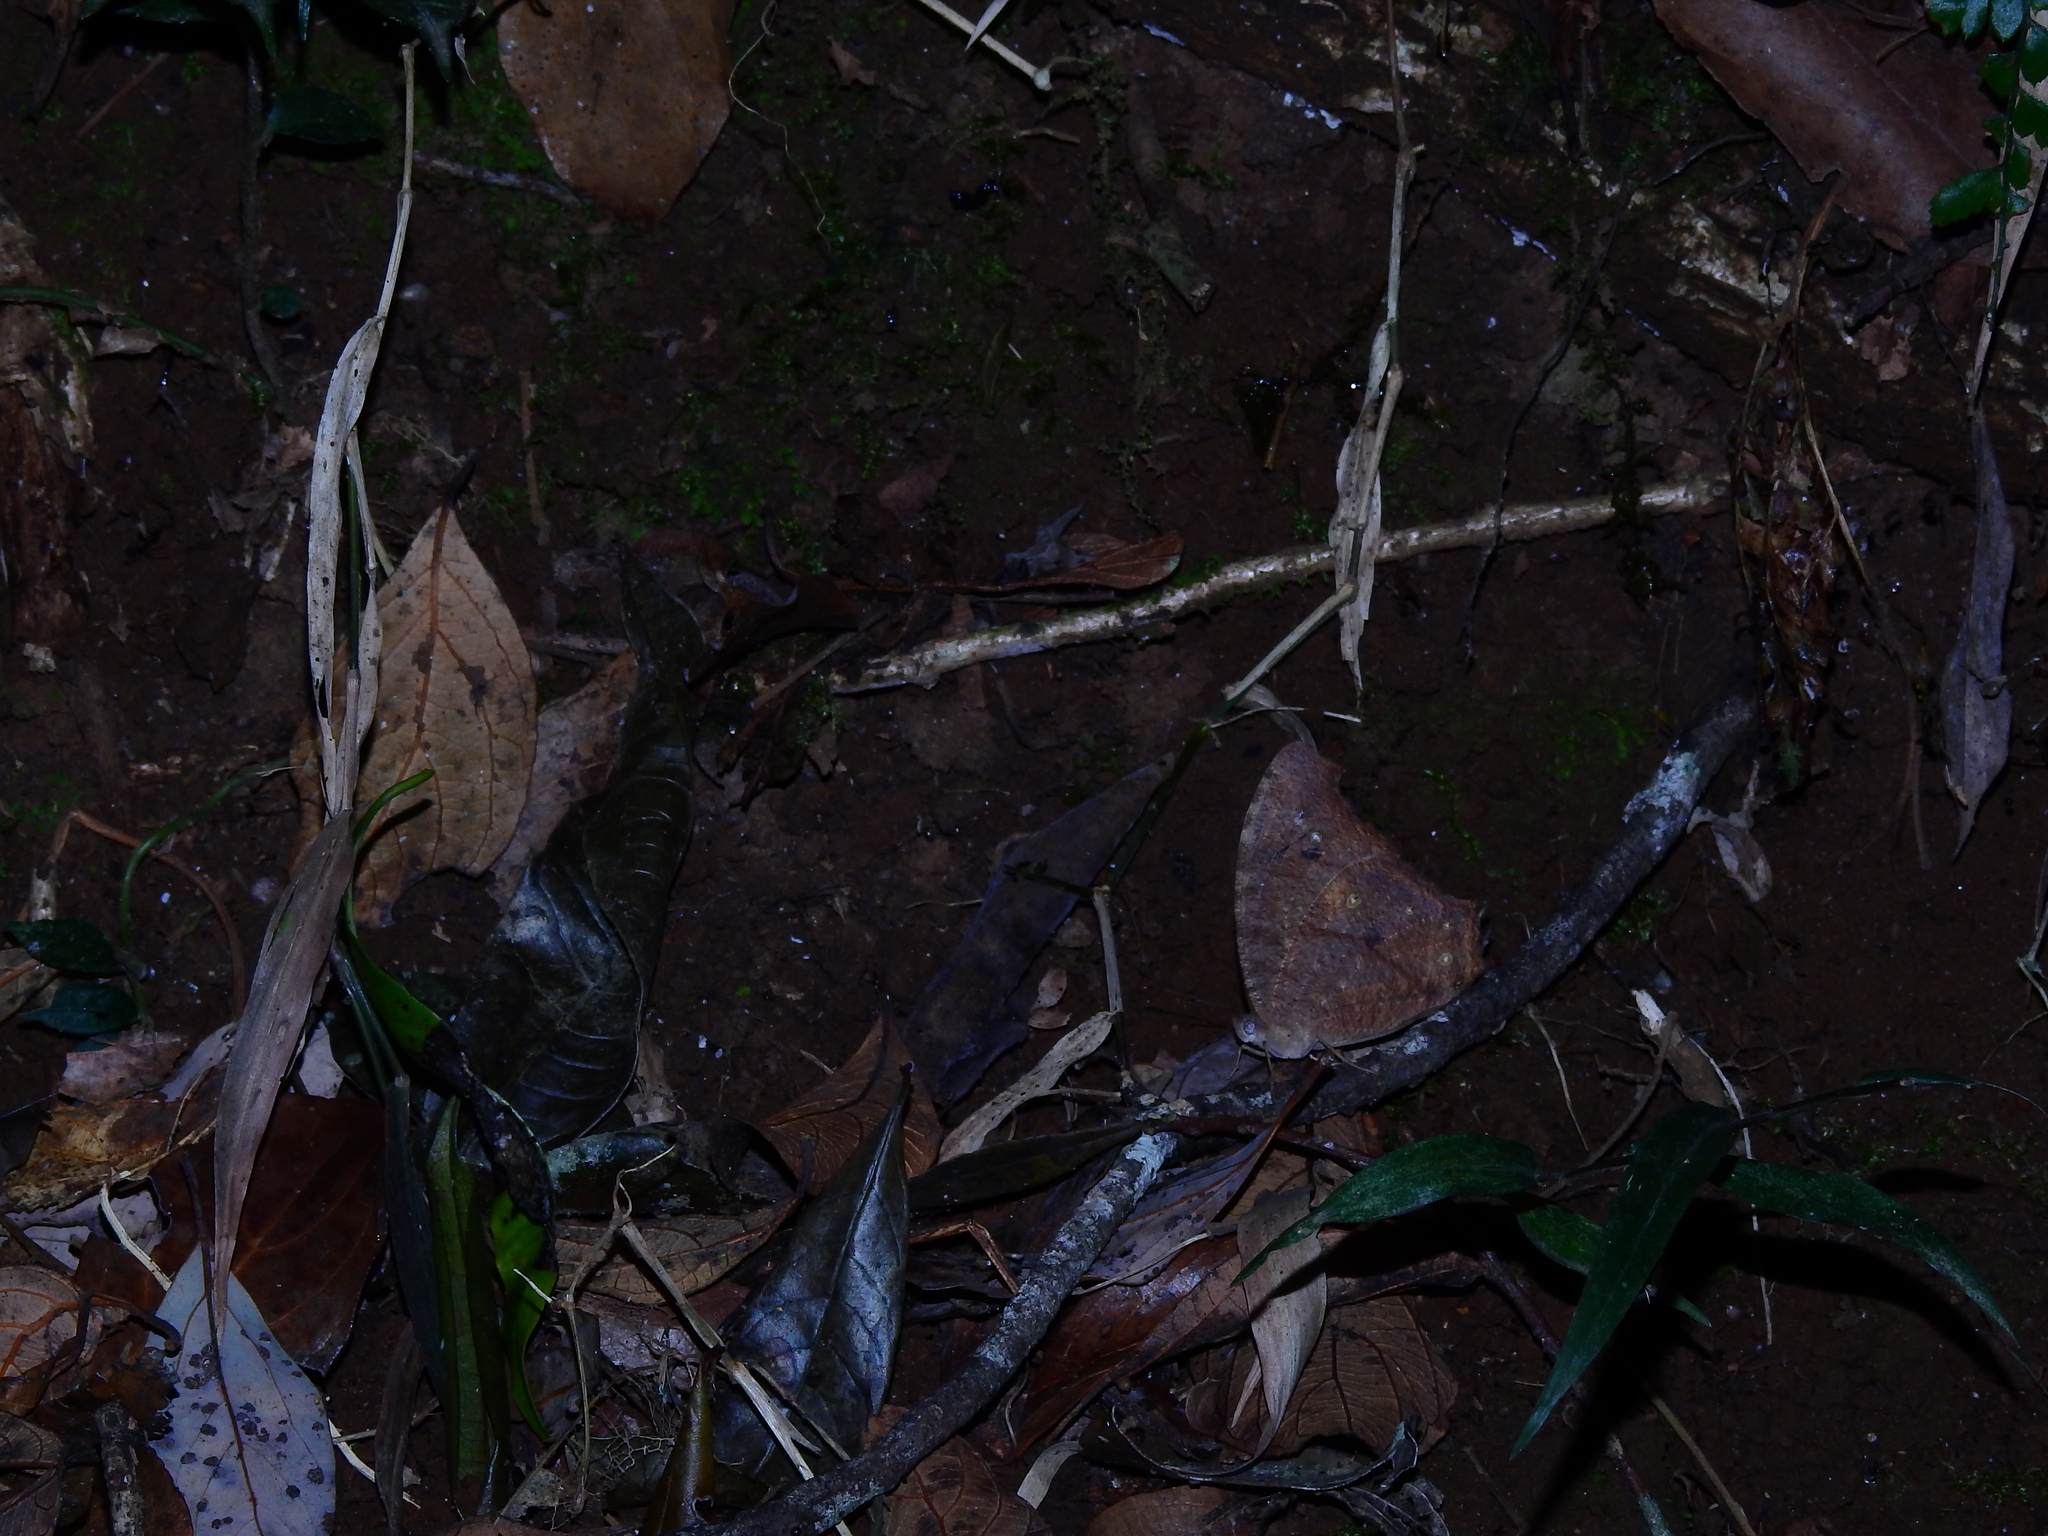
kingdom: Animalia
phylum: Arthropoda
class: Insecta
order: Lepidoptera
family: Nymphalidae
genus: Melanitis
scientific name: Melanitis phedima
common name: Dark evening brown
